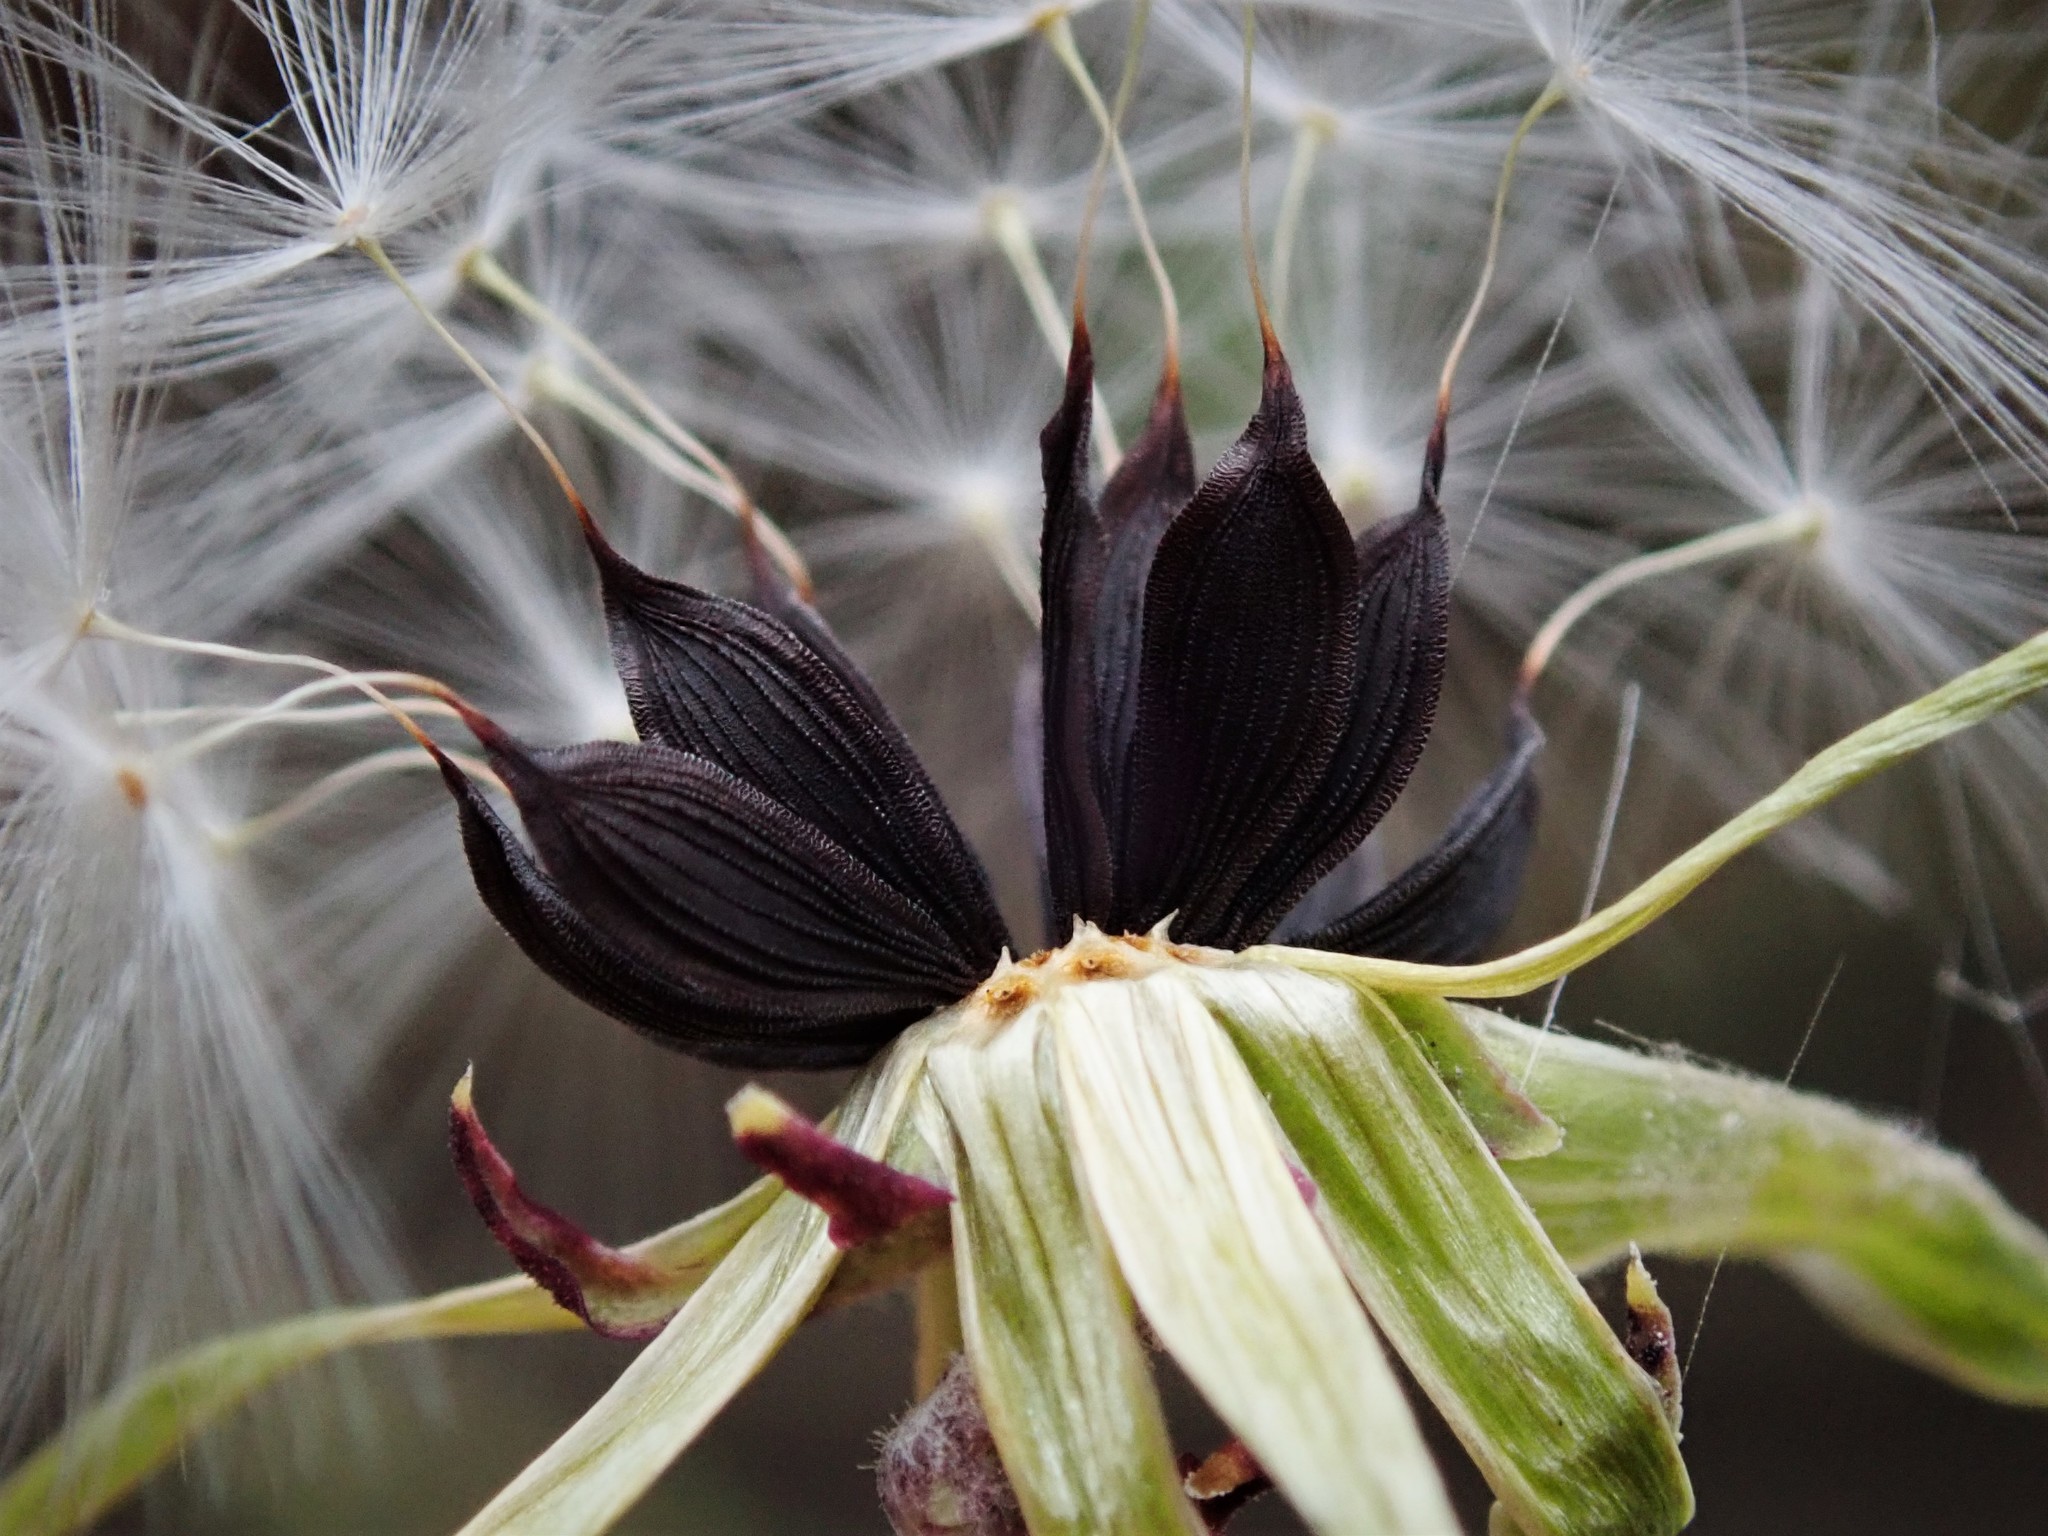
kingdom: Plantae
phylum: Tracheophyta
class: Magnoliopsida
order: Asterales
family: Asteraceae
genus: Lactuca
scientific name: Lactuca virosa
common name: Great lettuce
